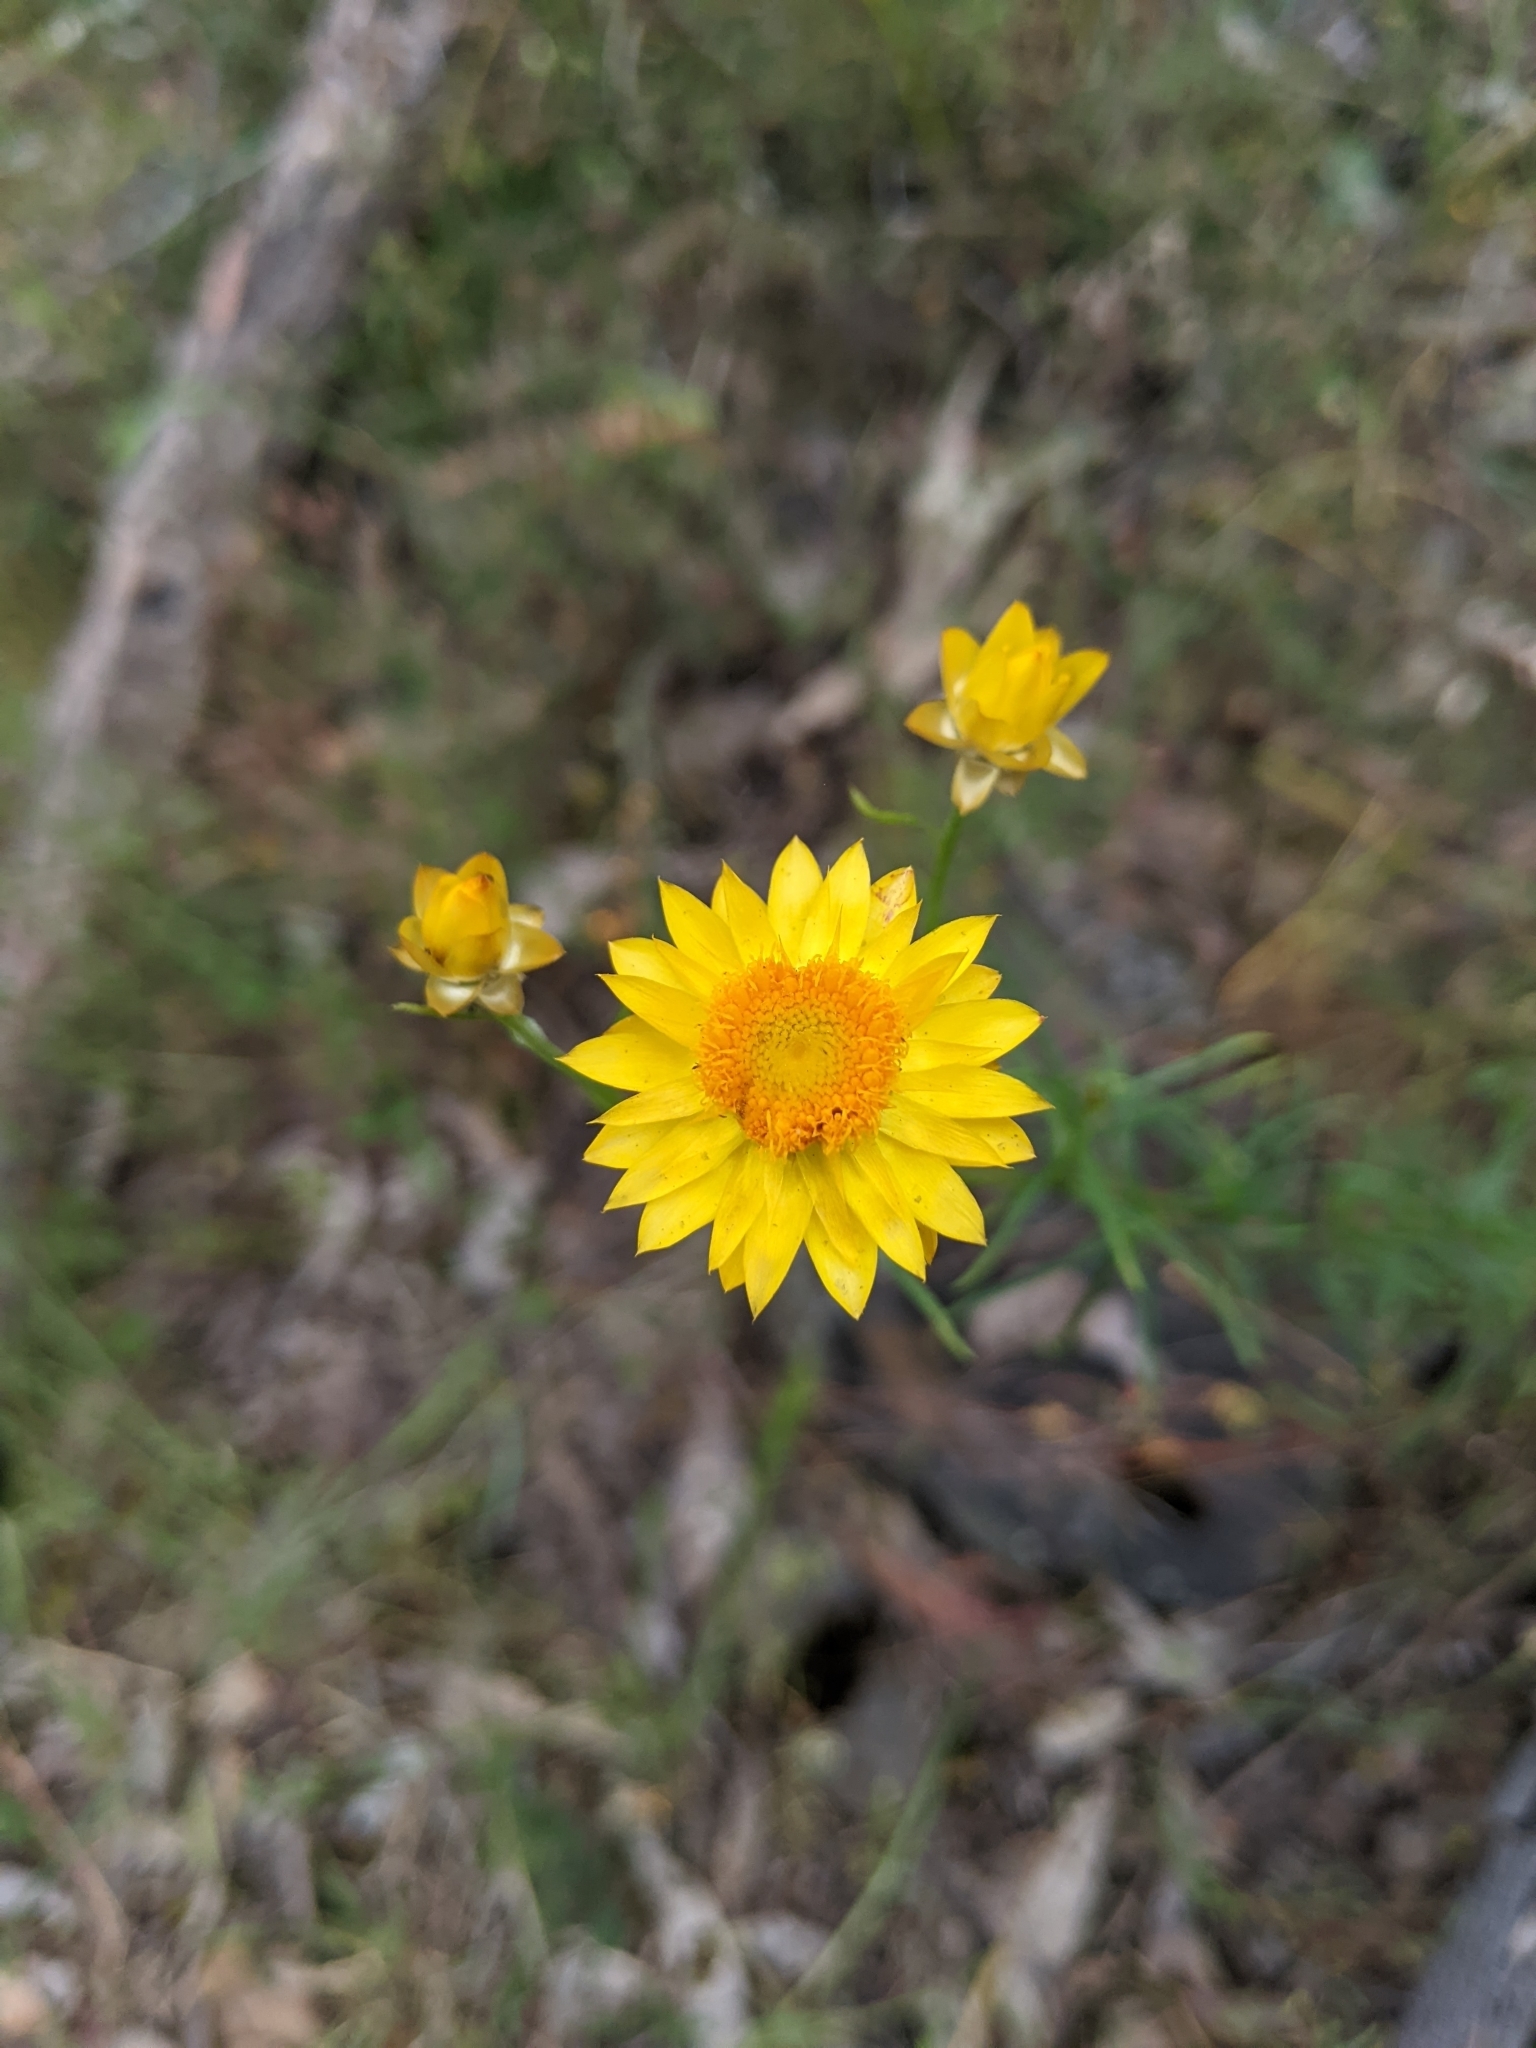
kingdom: Plantae
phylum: Tracheophyta
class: Magnoliopsida
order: Asterales
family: Asteraceae
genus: Xerochrysum
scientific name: Xerochrysum viscosum
